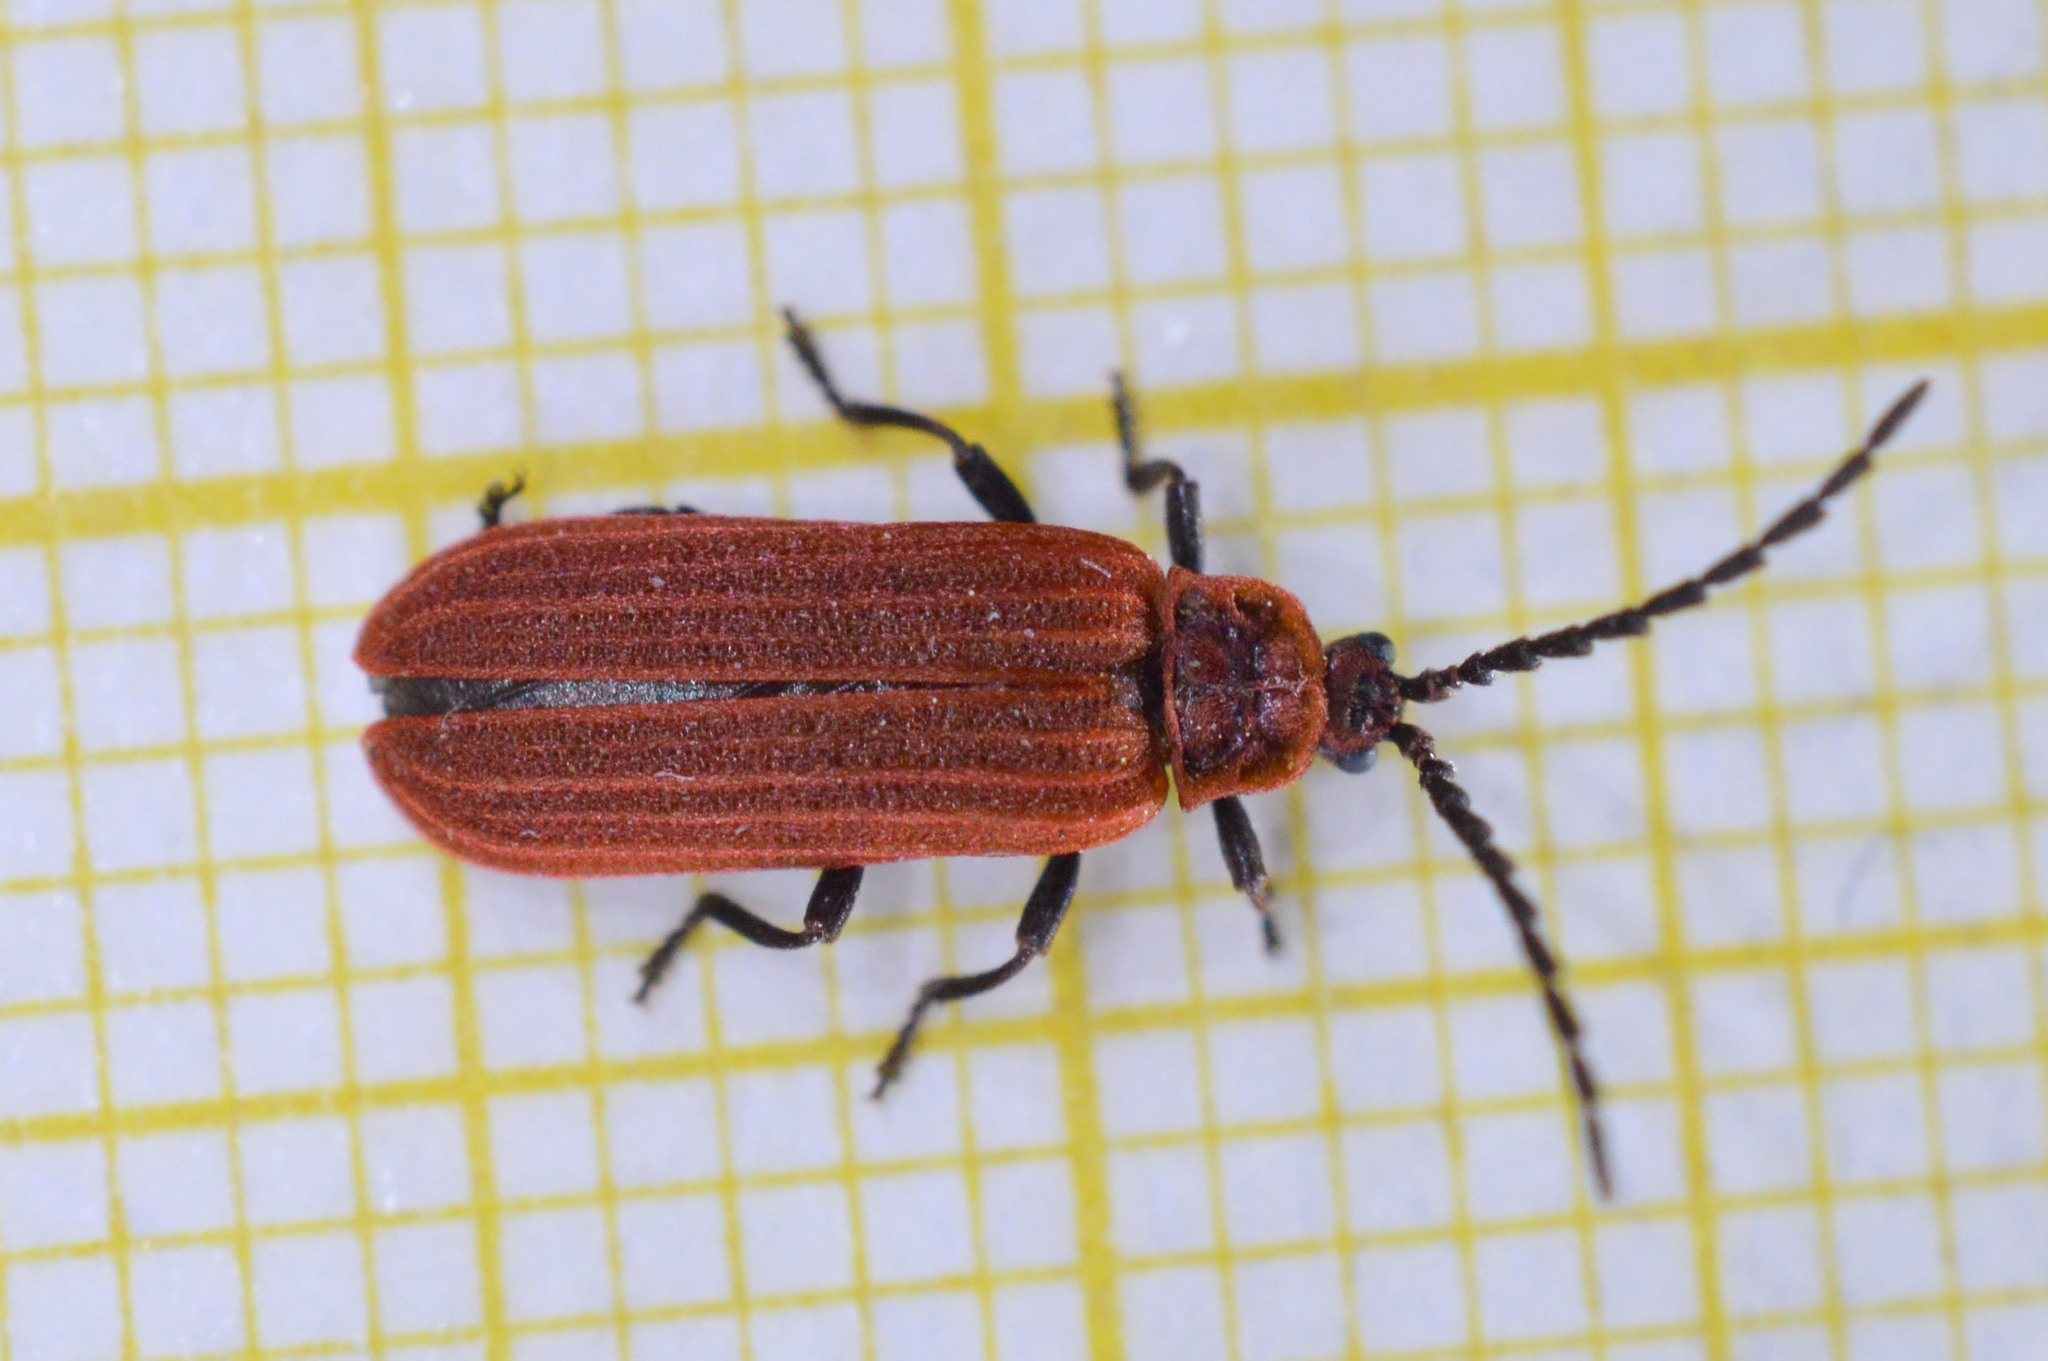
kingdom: Animalia
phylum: Arthropoda
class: Insecta
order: Coleoptera
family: Lycidae
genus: Lopheros
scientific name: Lopheros rubens
